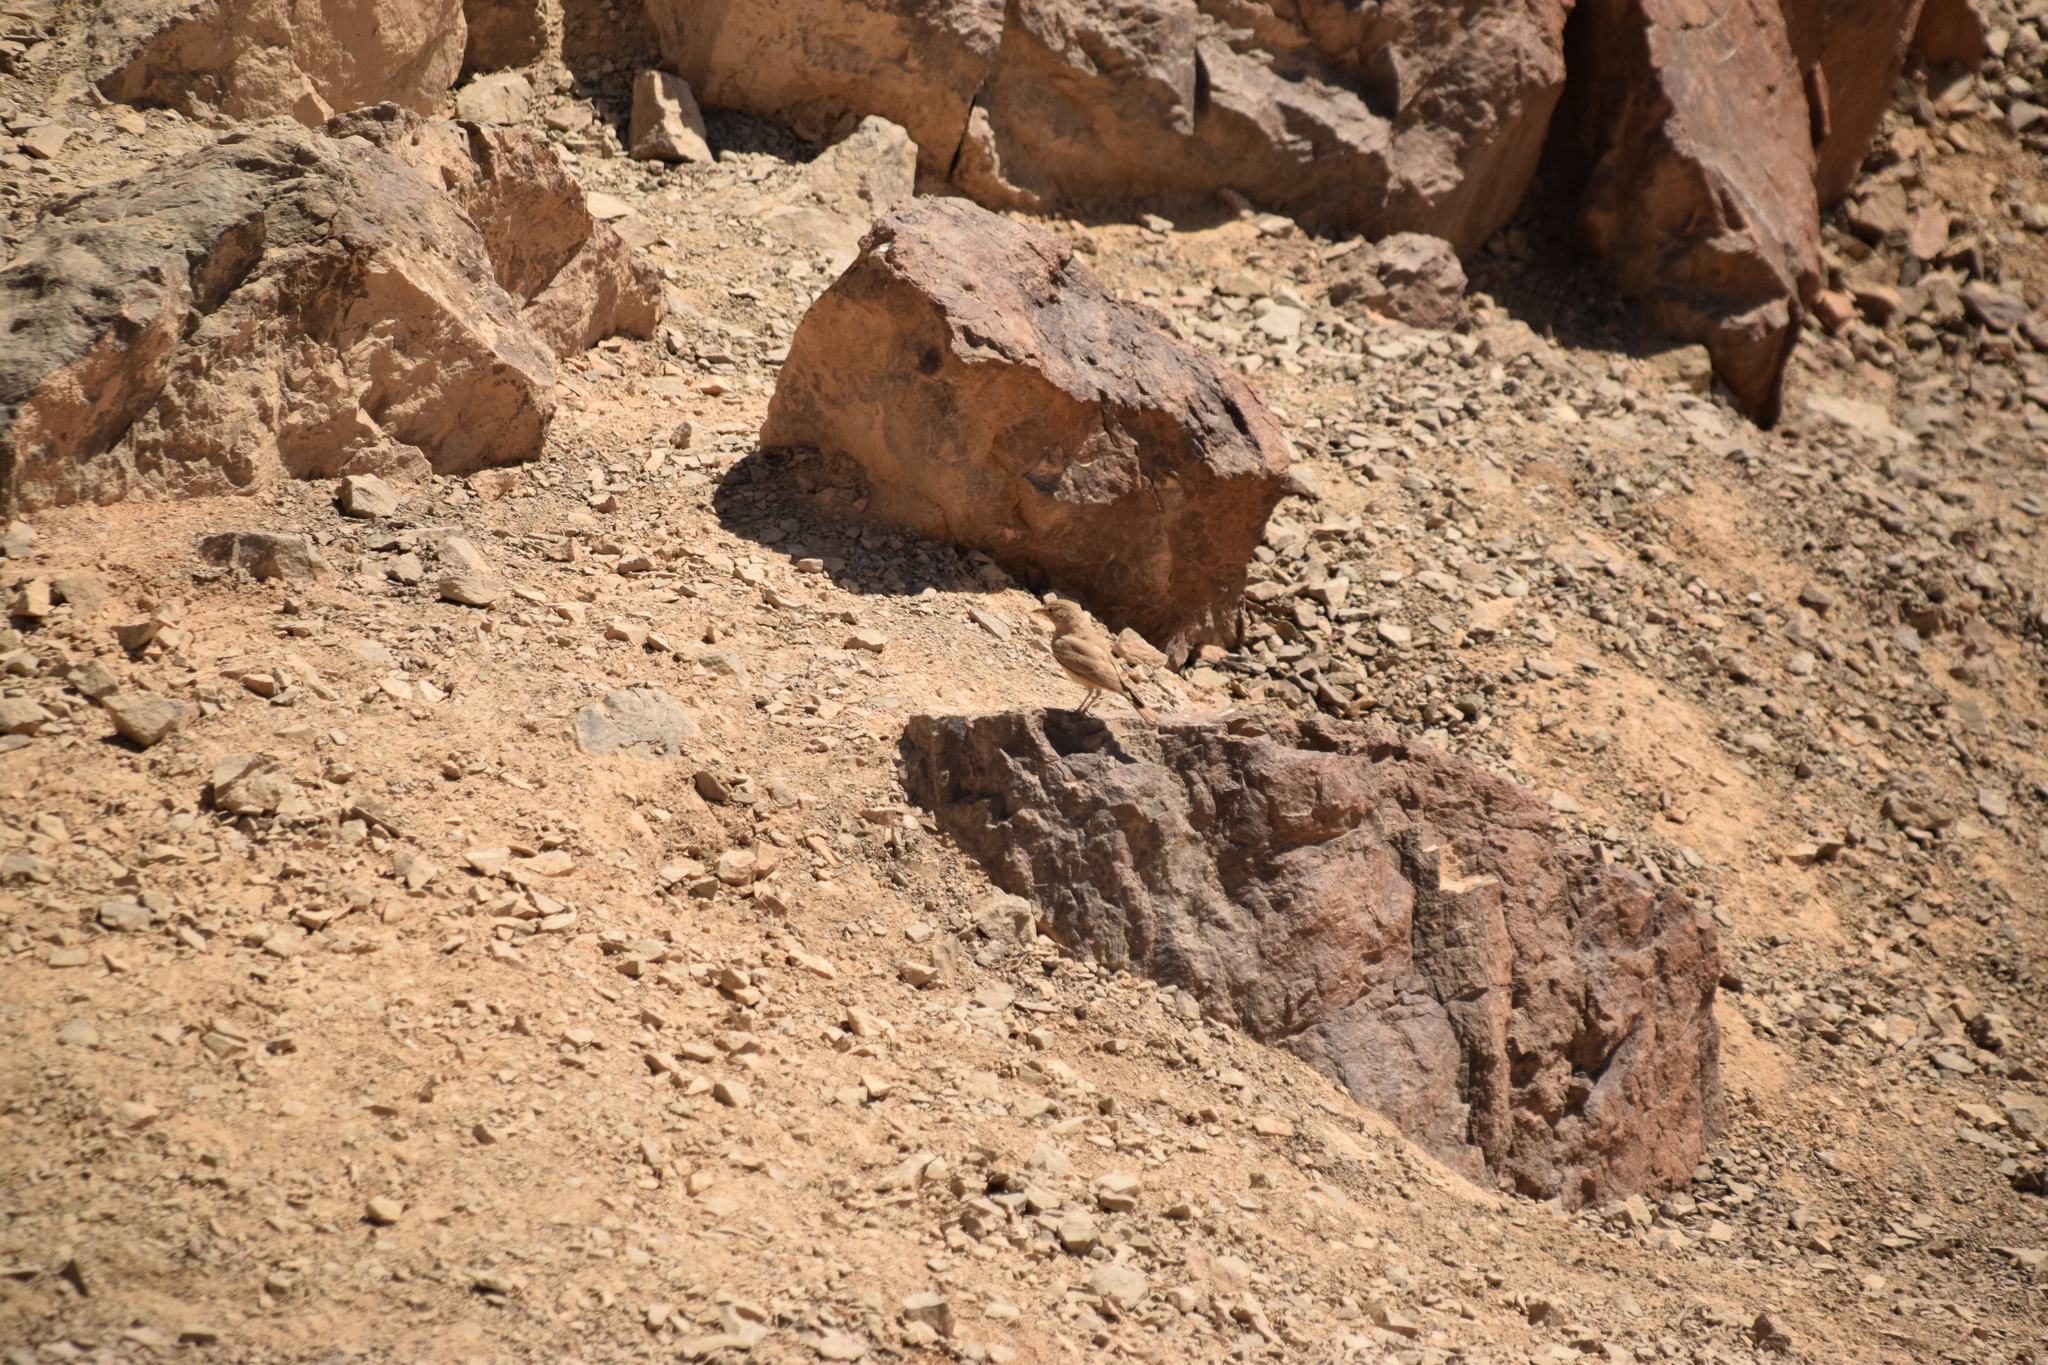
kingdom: Animalia
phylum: Chordata
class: Aves
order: Passeriformes
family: Alaudidae
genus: Ammomanes
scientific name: Ammomanes deserti
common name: Desert lark
